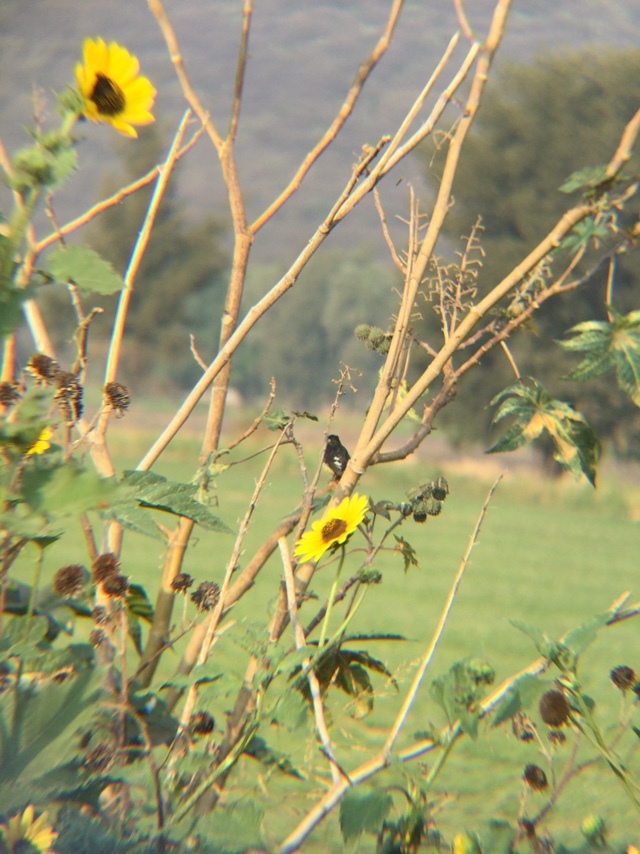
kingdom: Animalia
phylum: Chordata
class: Aves
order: Passeriformes
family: Fringillidae
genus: Spinus
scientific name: Spinus psaltria
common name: Lesser goldfinch
